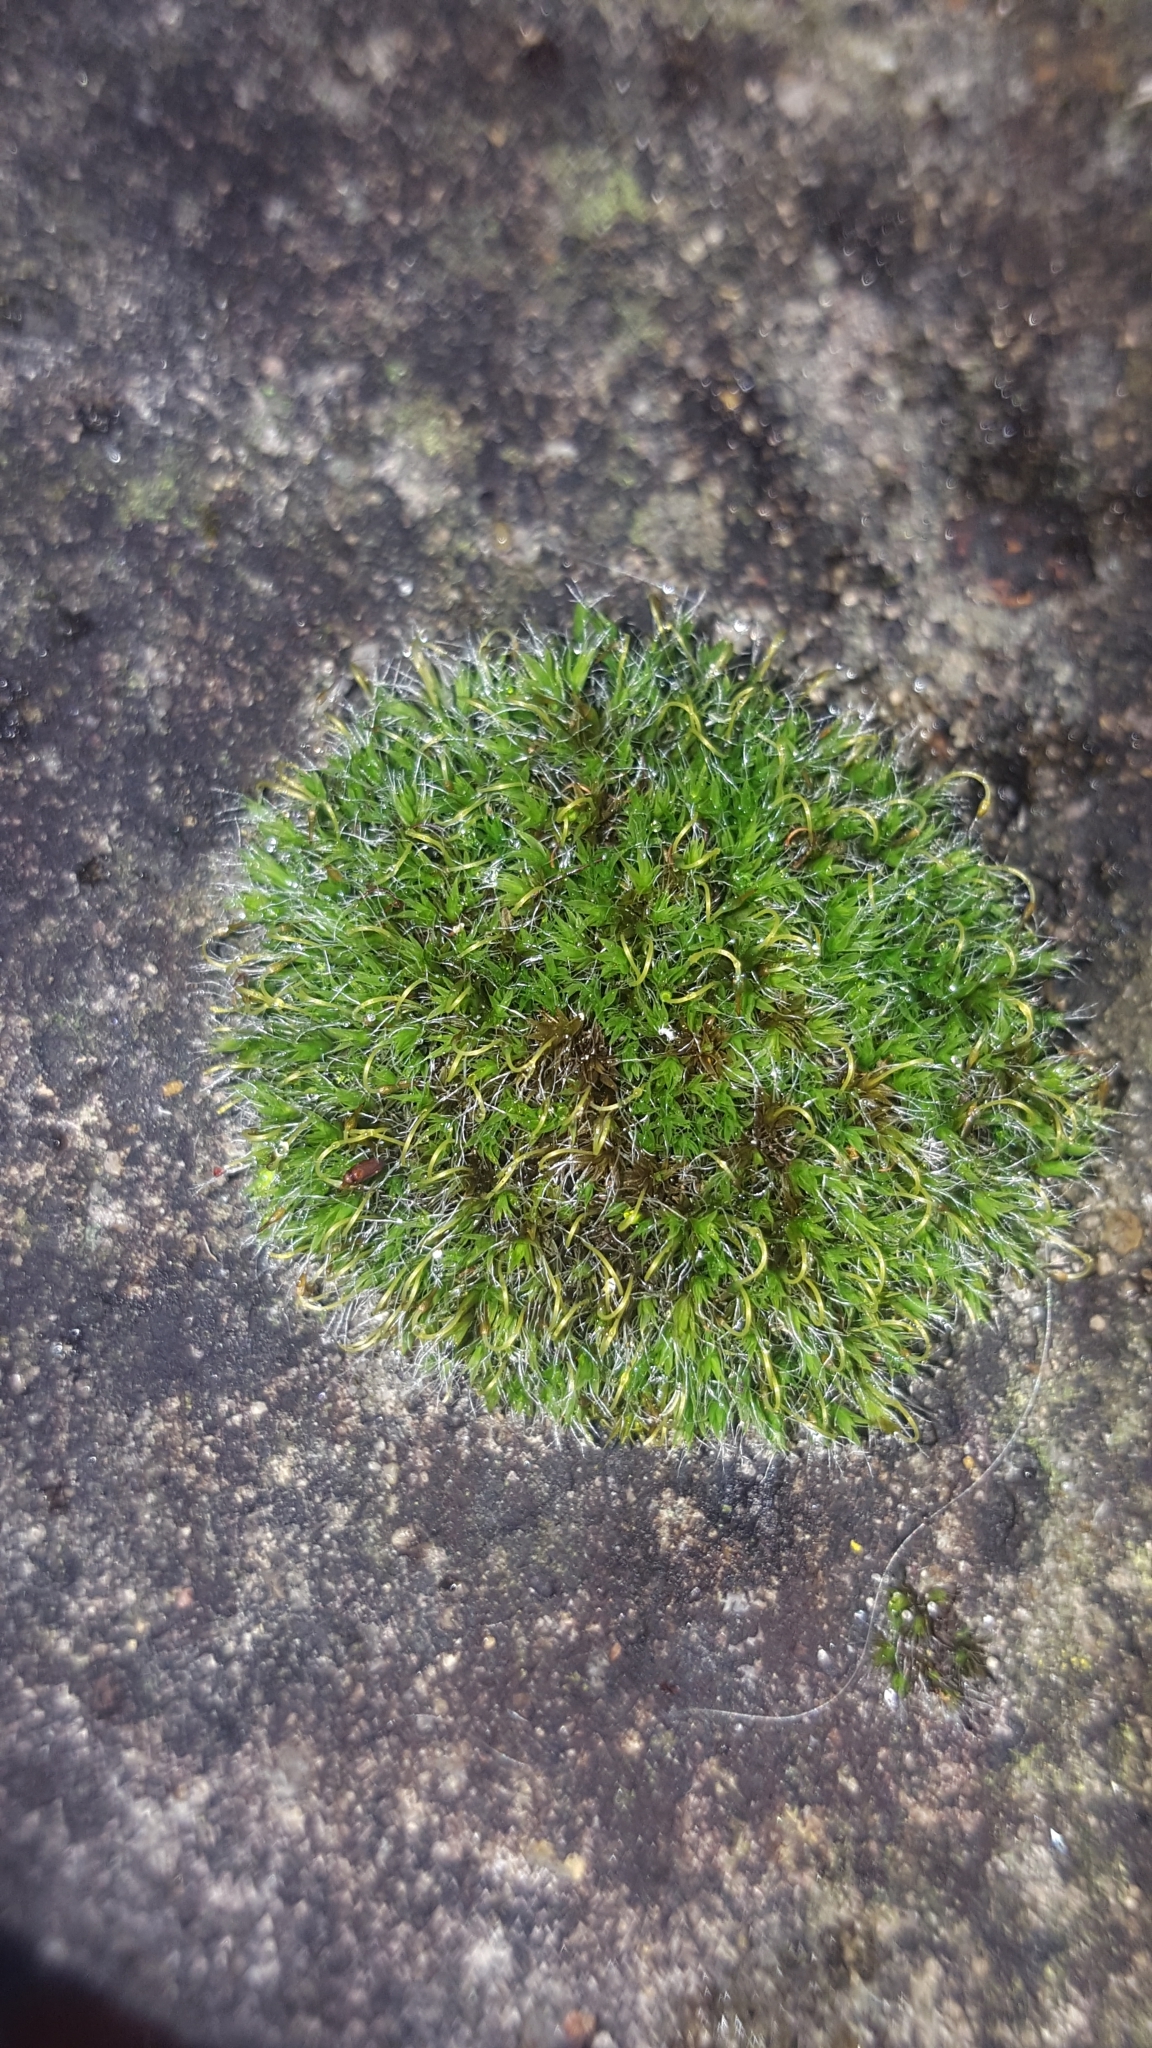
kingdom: Plantae
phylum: Bryophyta
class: Bryopsida
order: Grimmiales
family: Grimmiaceae
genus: Grimmia
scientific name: Grimmia pulvinata
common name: Grey-cushioned grimmia
